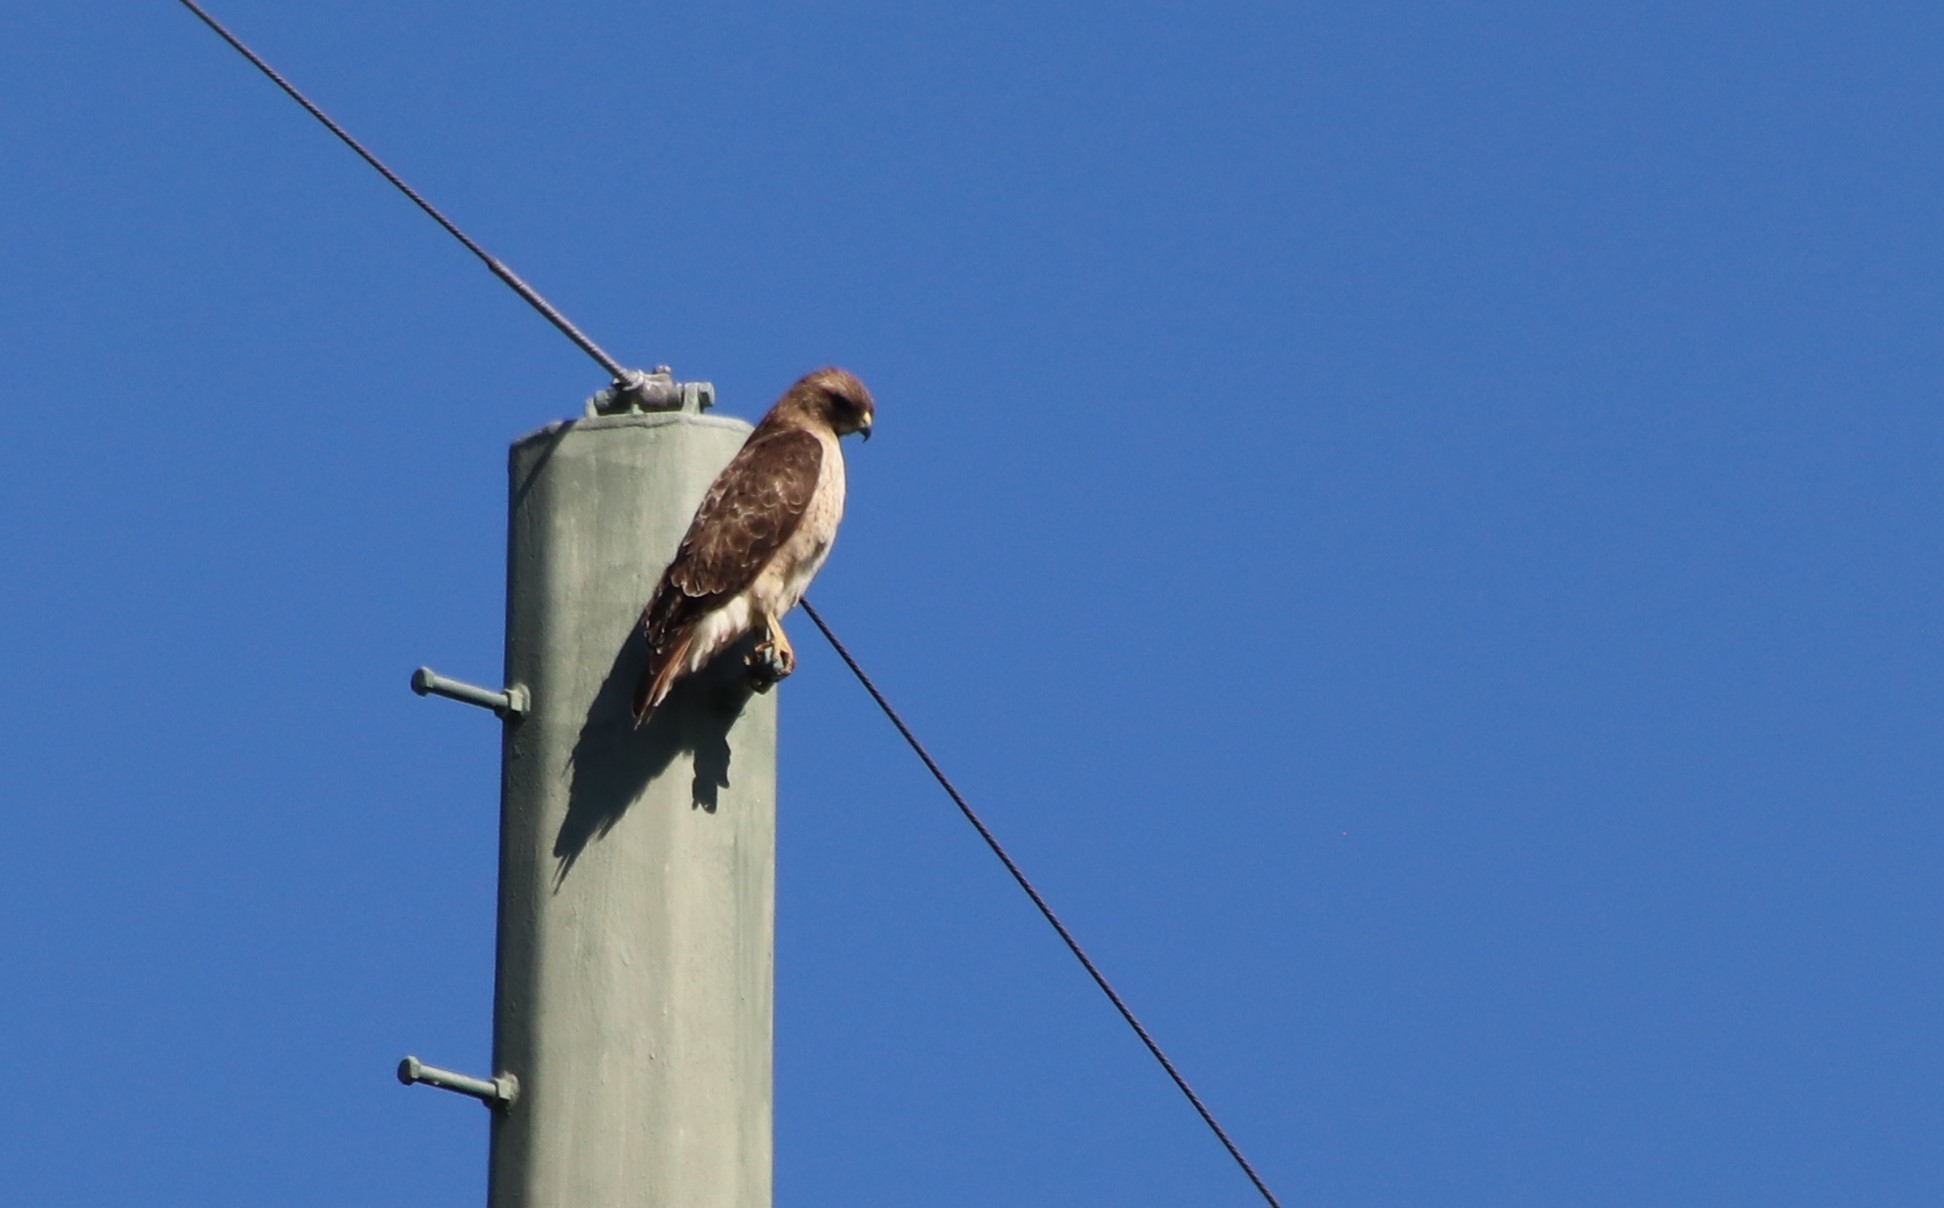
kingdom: Animalia
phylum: Chordata
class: Aves
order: Accipitriformes
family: Accipitridae
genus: Buteo
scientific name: Buteo jamaicensis
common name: Red-tailed hawk
